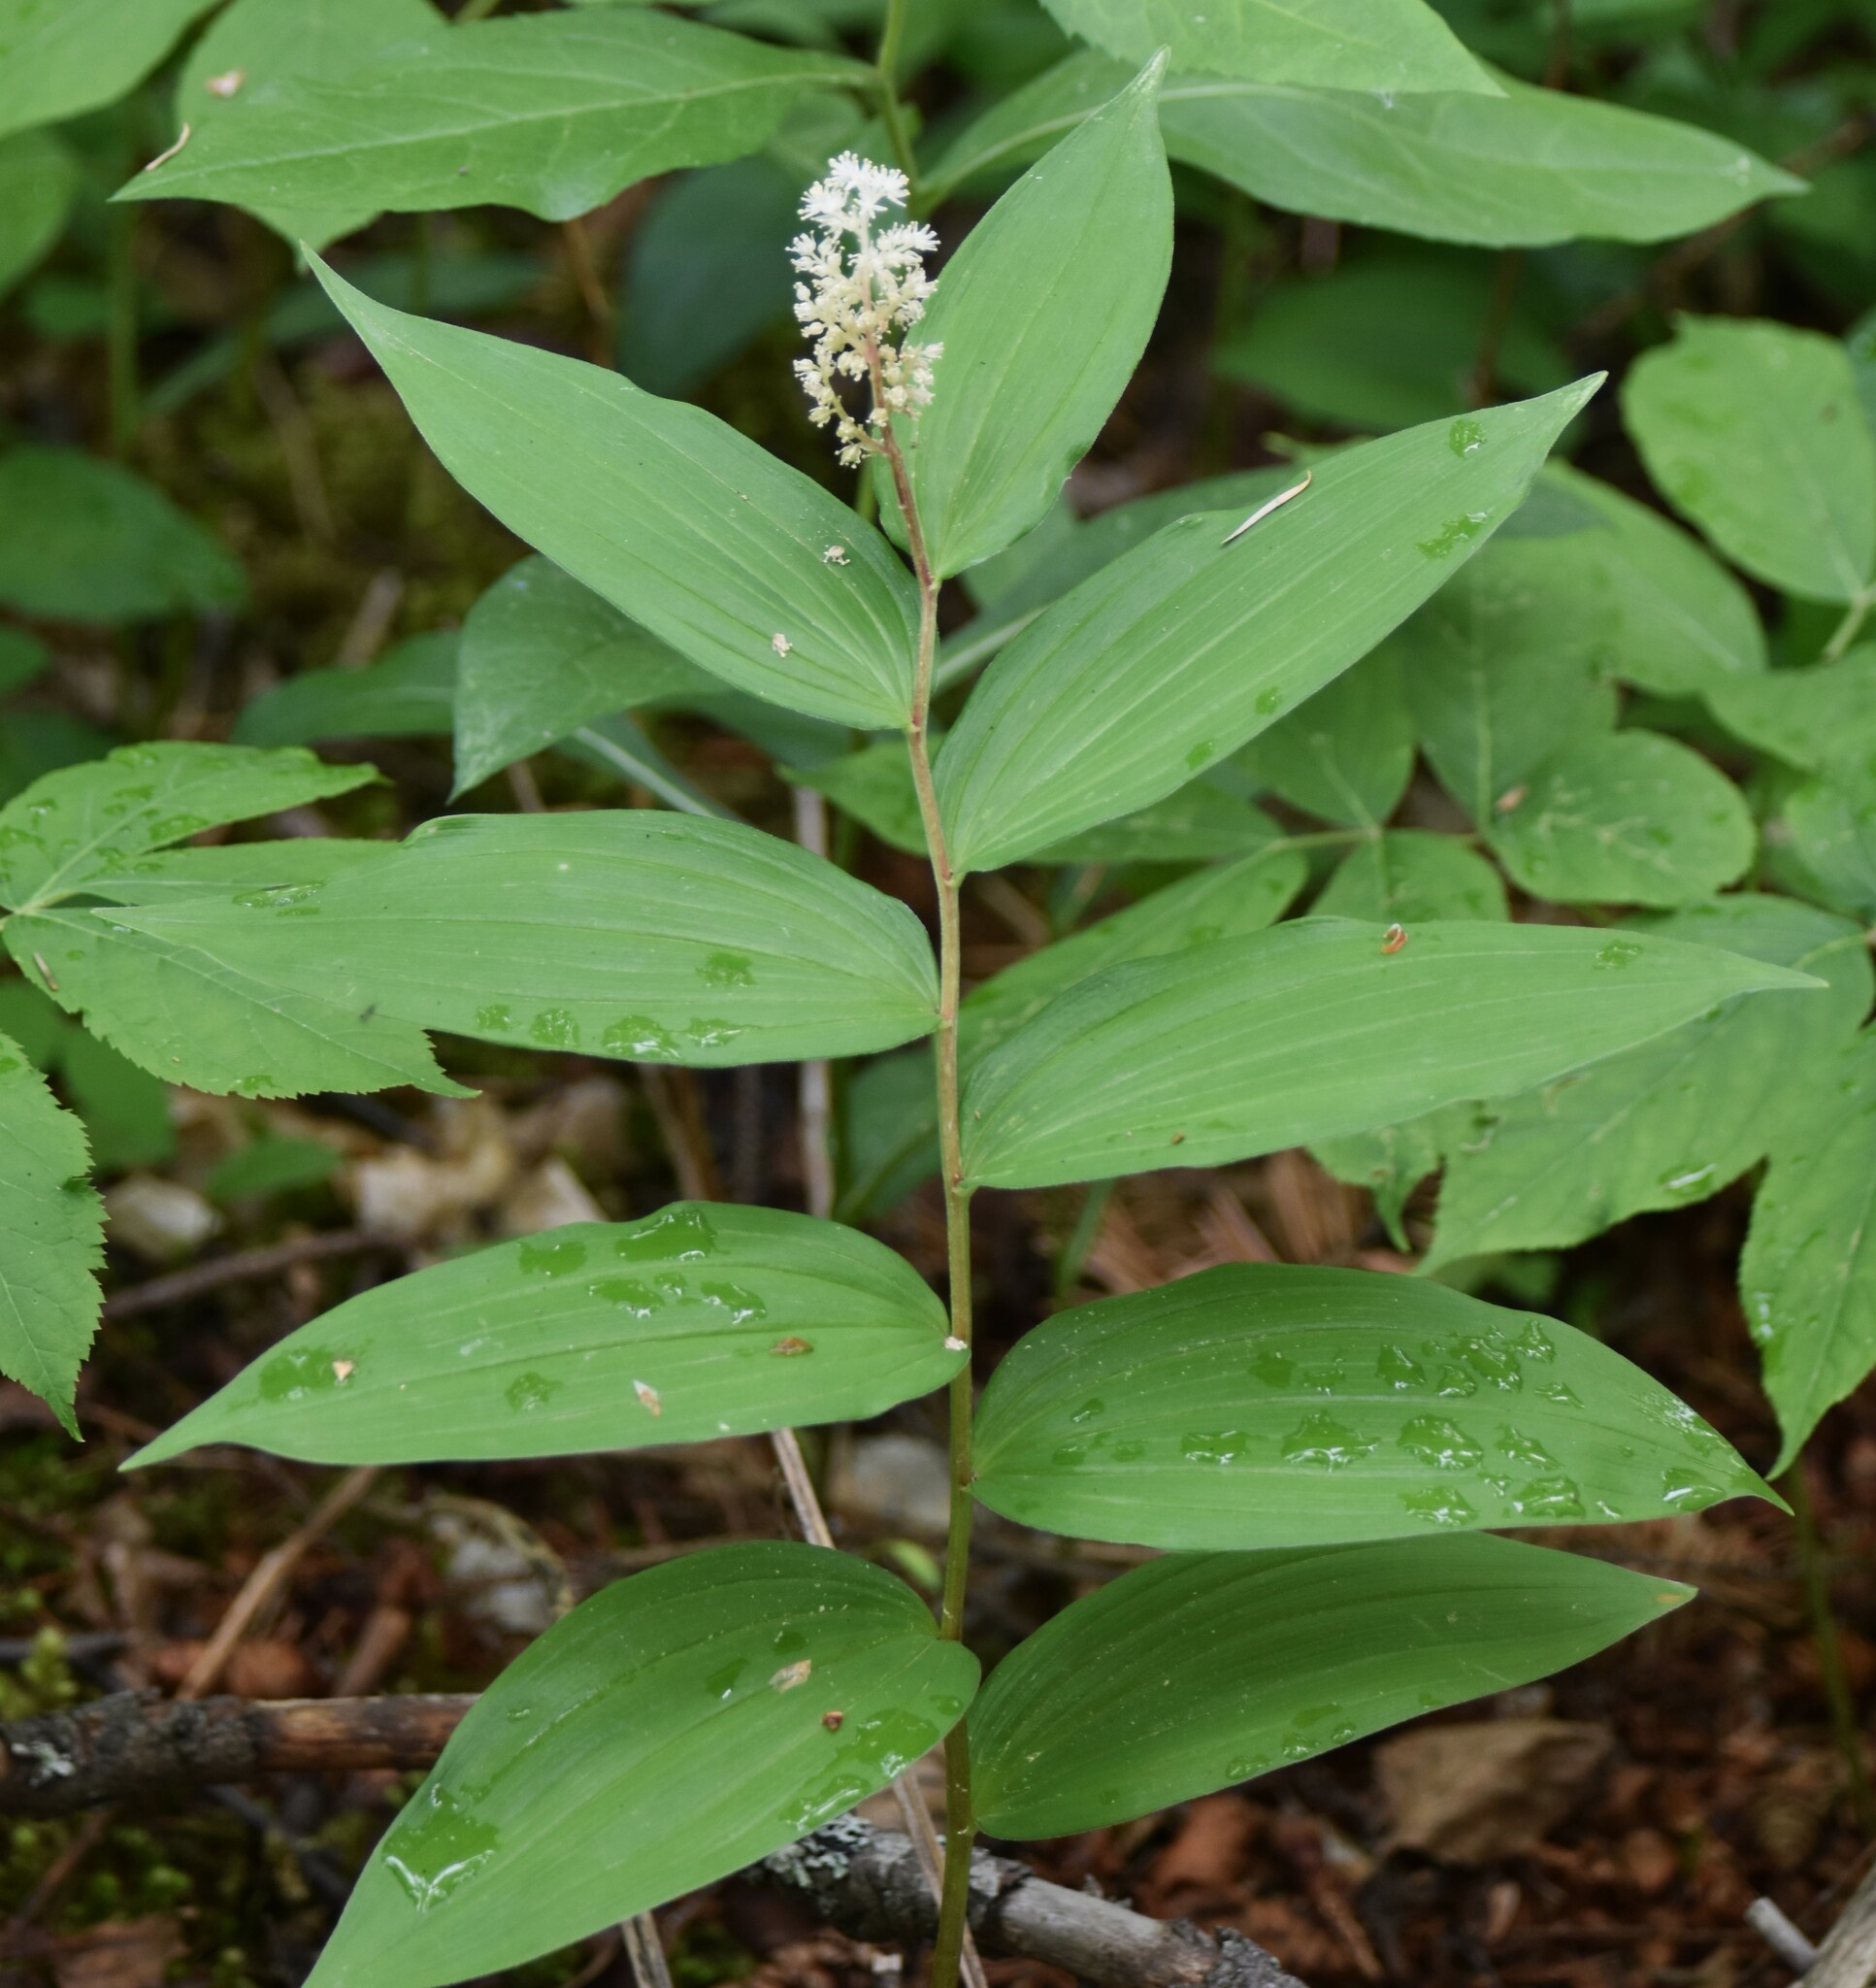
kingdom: Plantae
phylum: Tracheophyta
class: Liliopsida
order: Asparagales
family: Asparagaceae
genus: Maianthemum
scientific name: Maianthemum racemosum
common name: False spikenard
